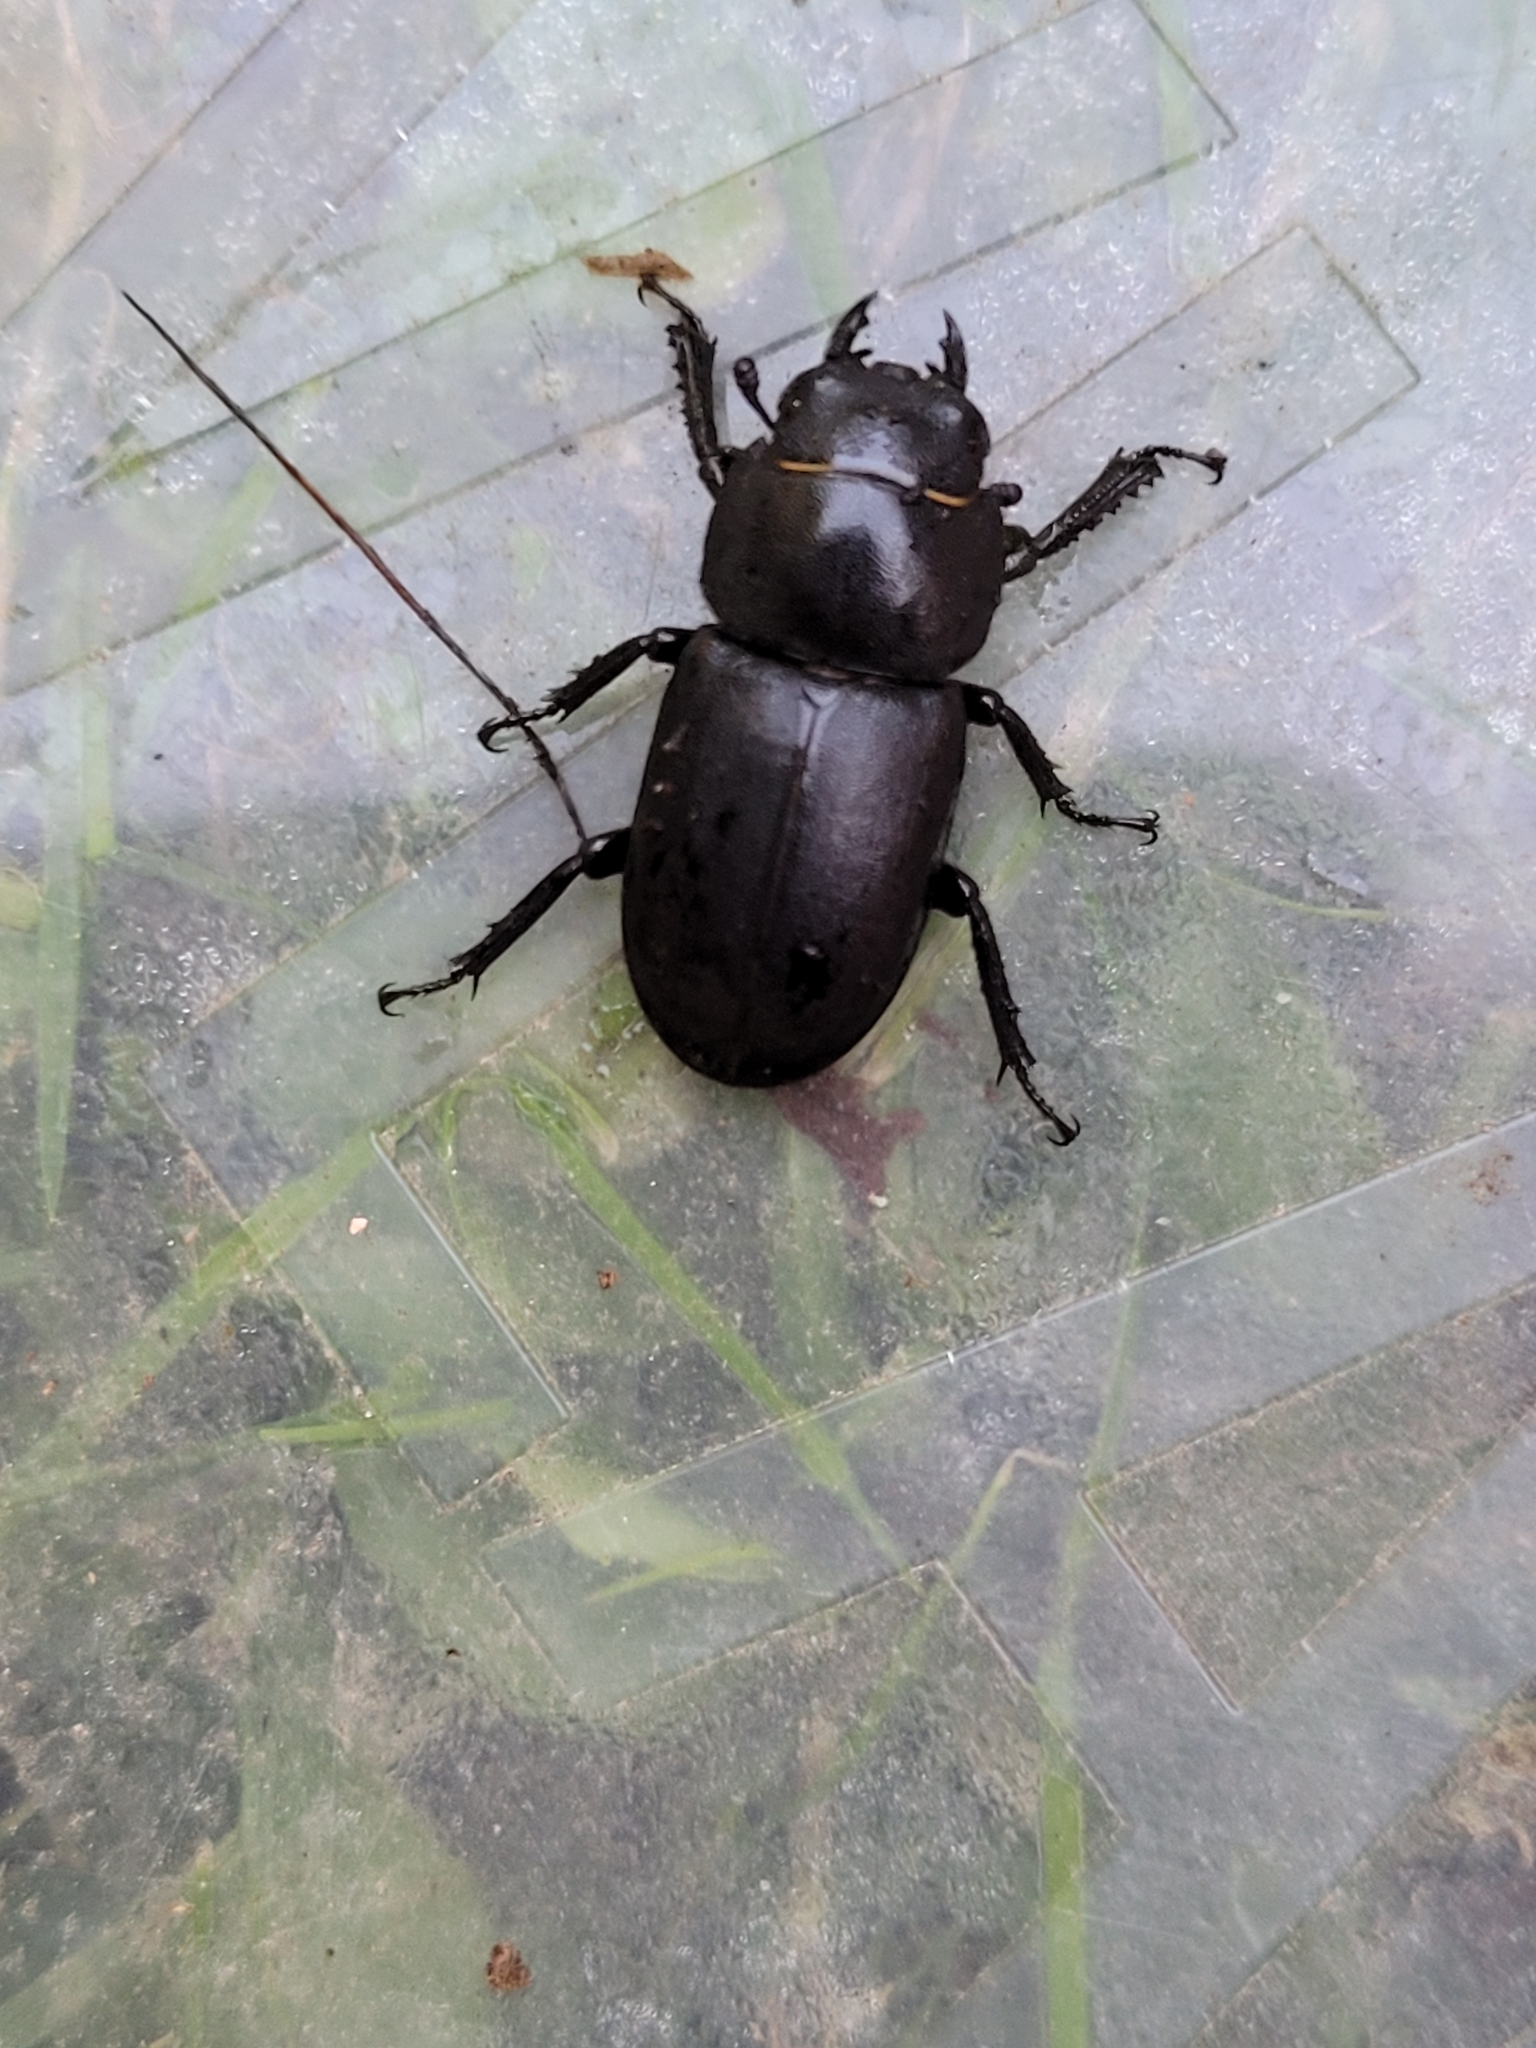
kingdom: Animalia
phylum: Arthropoda
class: Insecta
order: Coleoptera
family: Lucanidae
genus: Dorcus
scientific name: Dorcus parallelipipedus
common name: Lesser stag beetle
